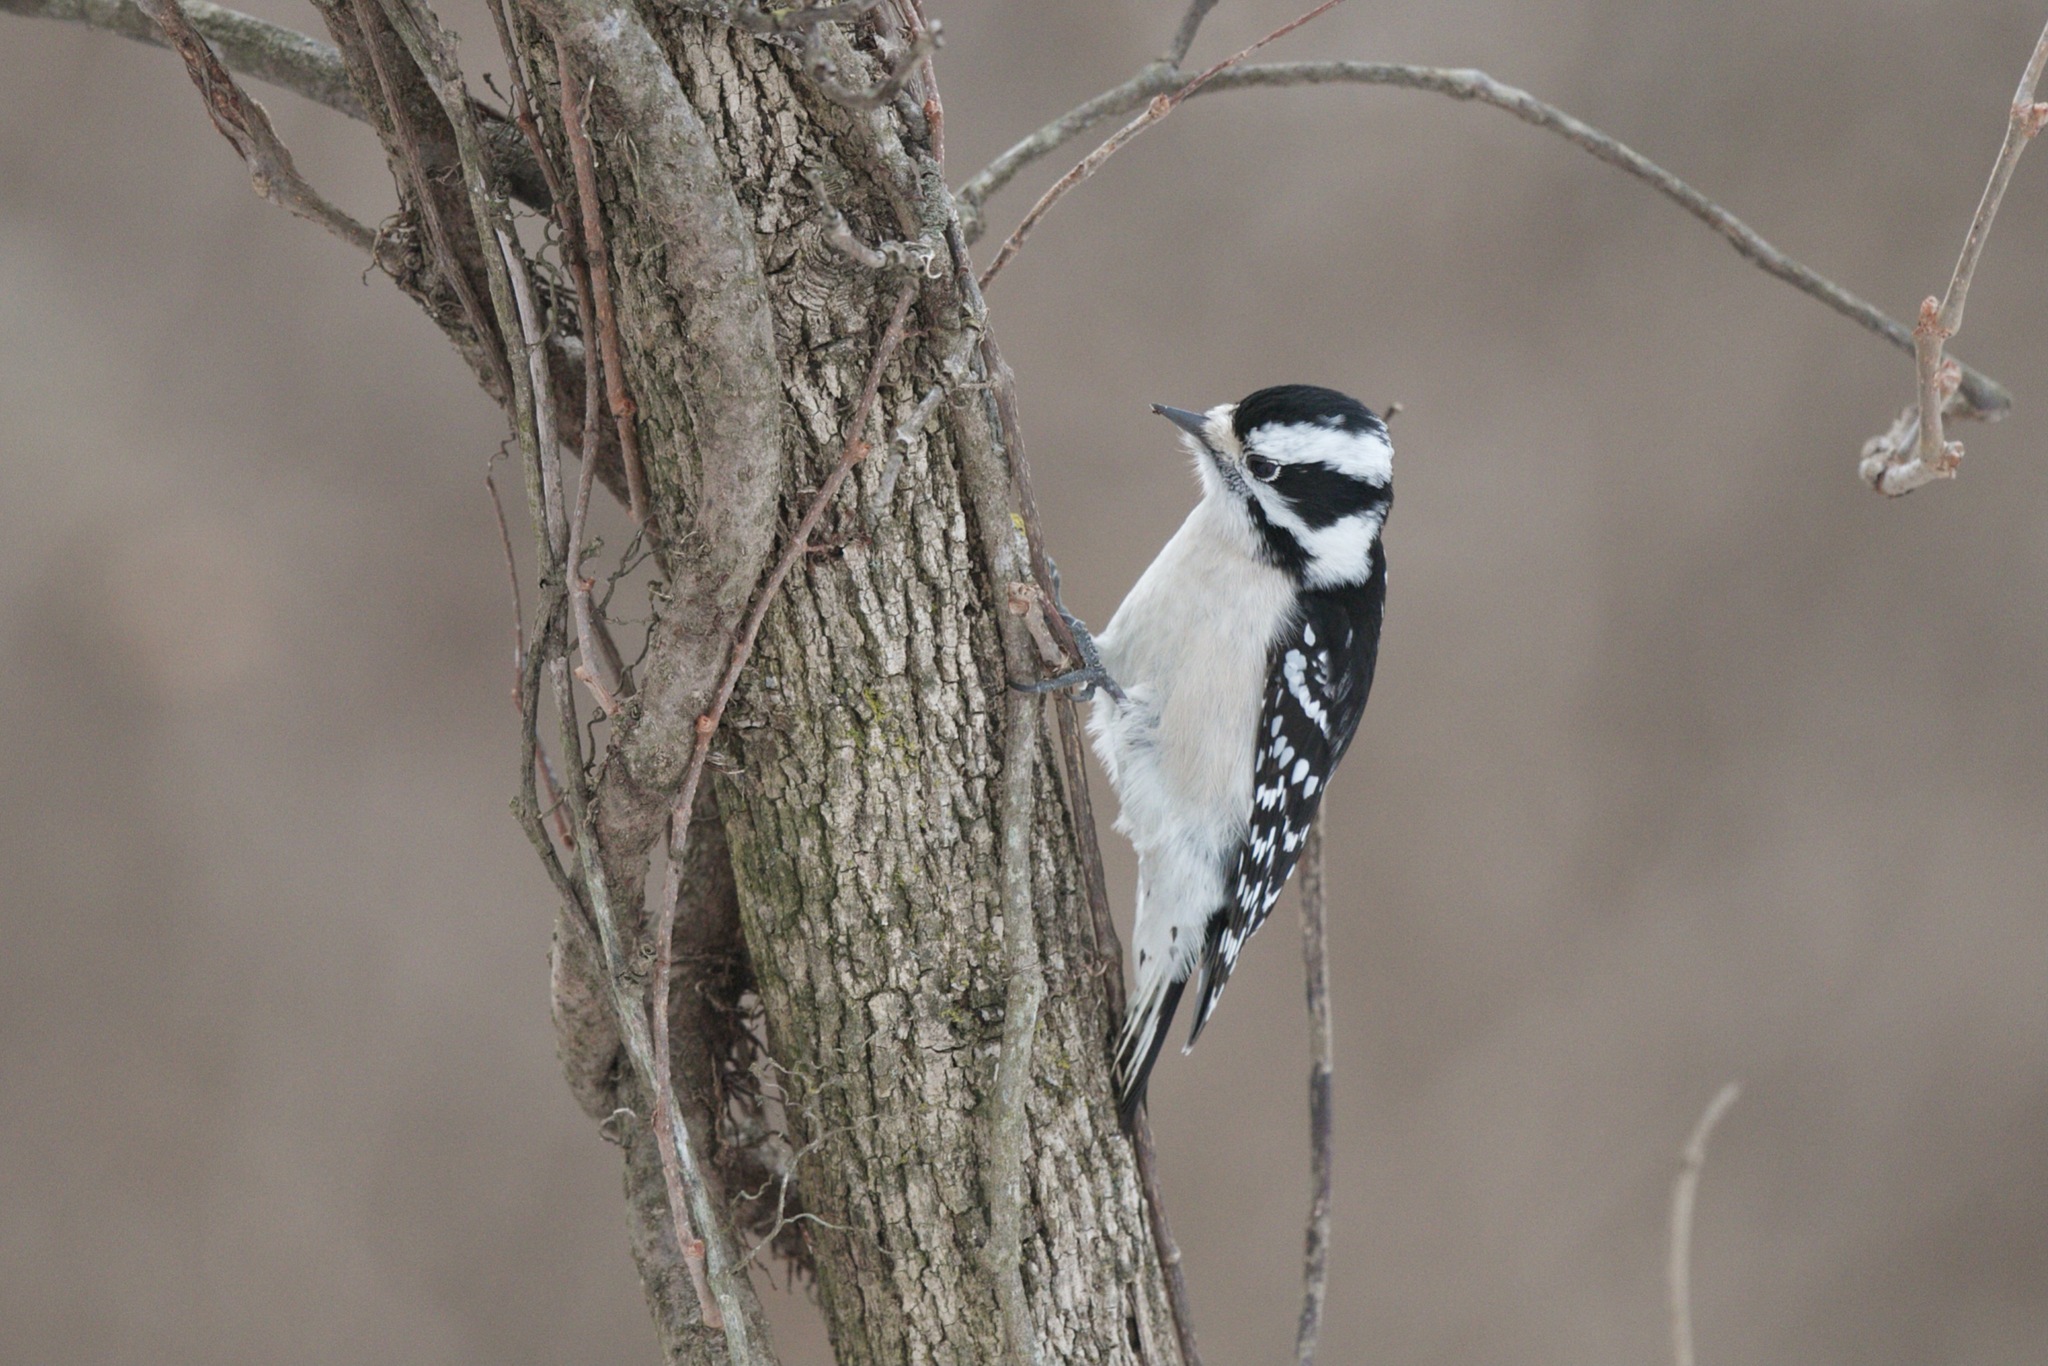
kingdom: Animalia
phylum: Chordata
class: Aves
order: Piciformes
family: Picidae
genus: Dryobates
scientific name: Dryobates pubescens
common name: Downy woodpecker
